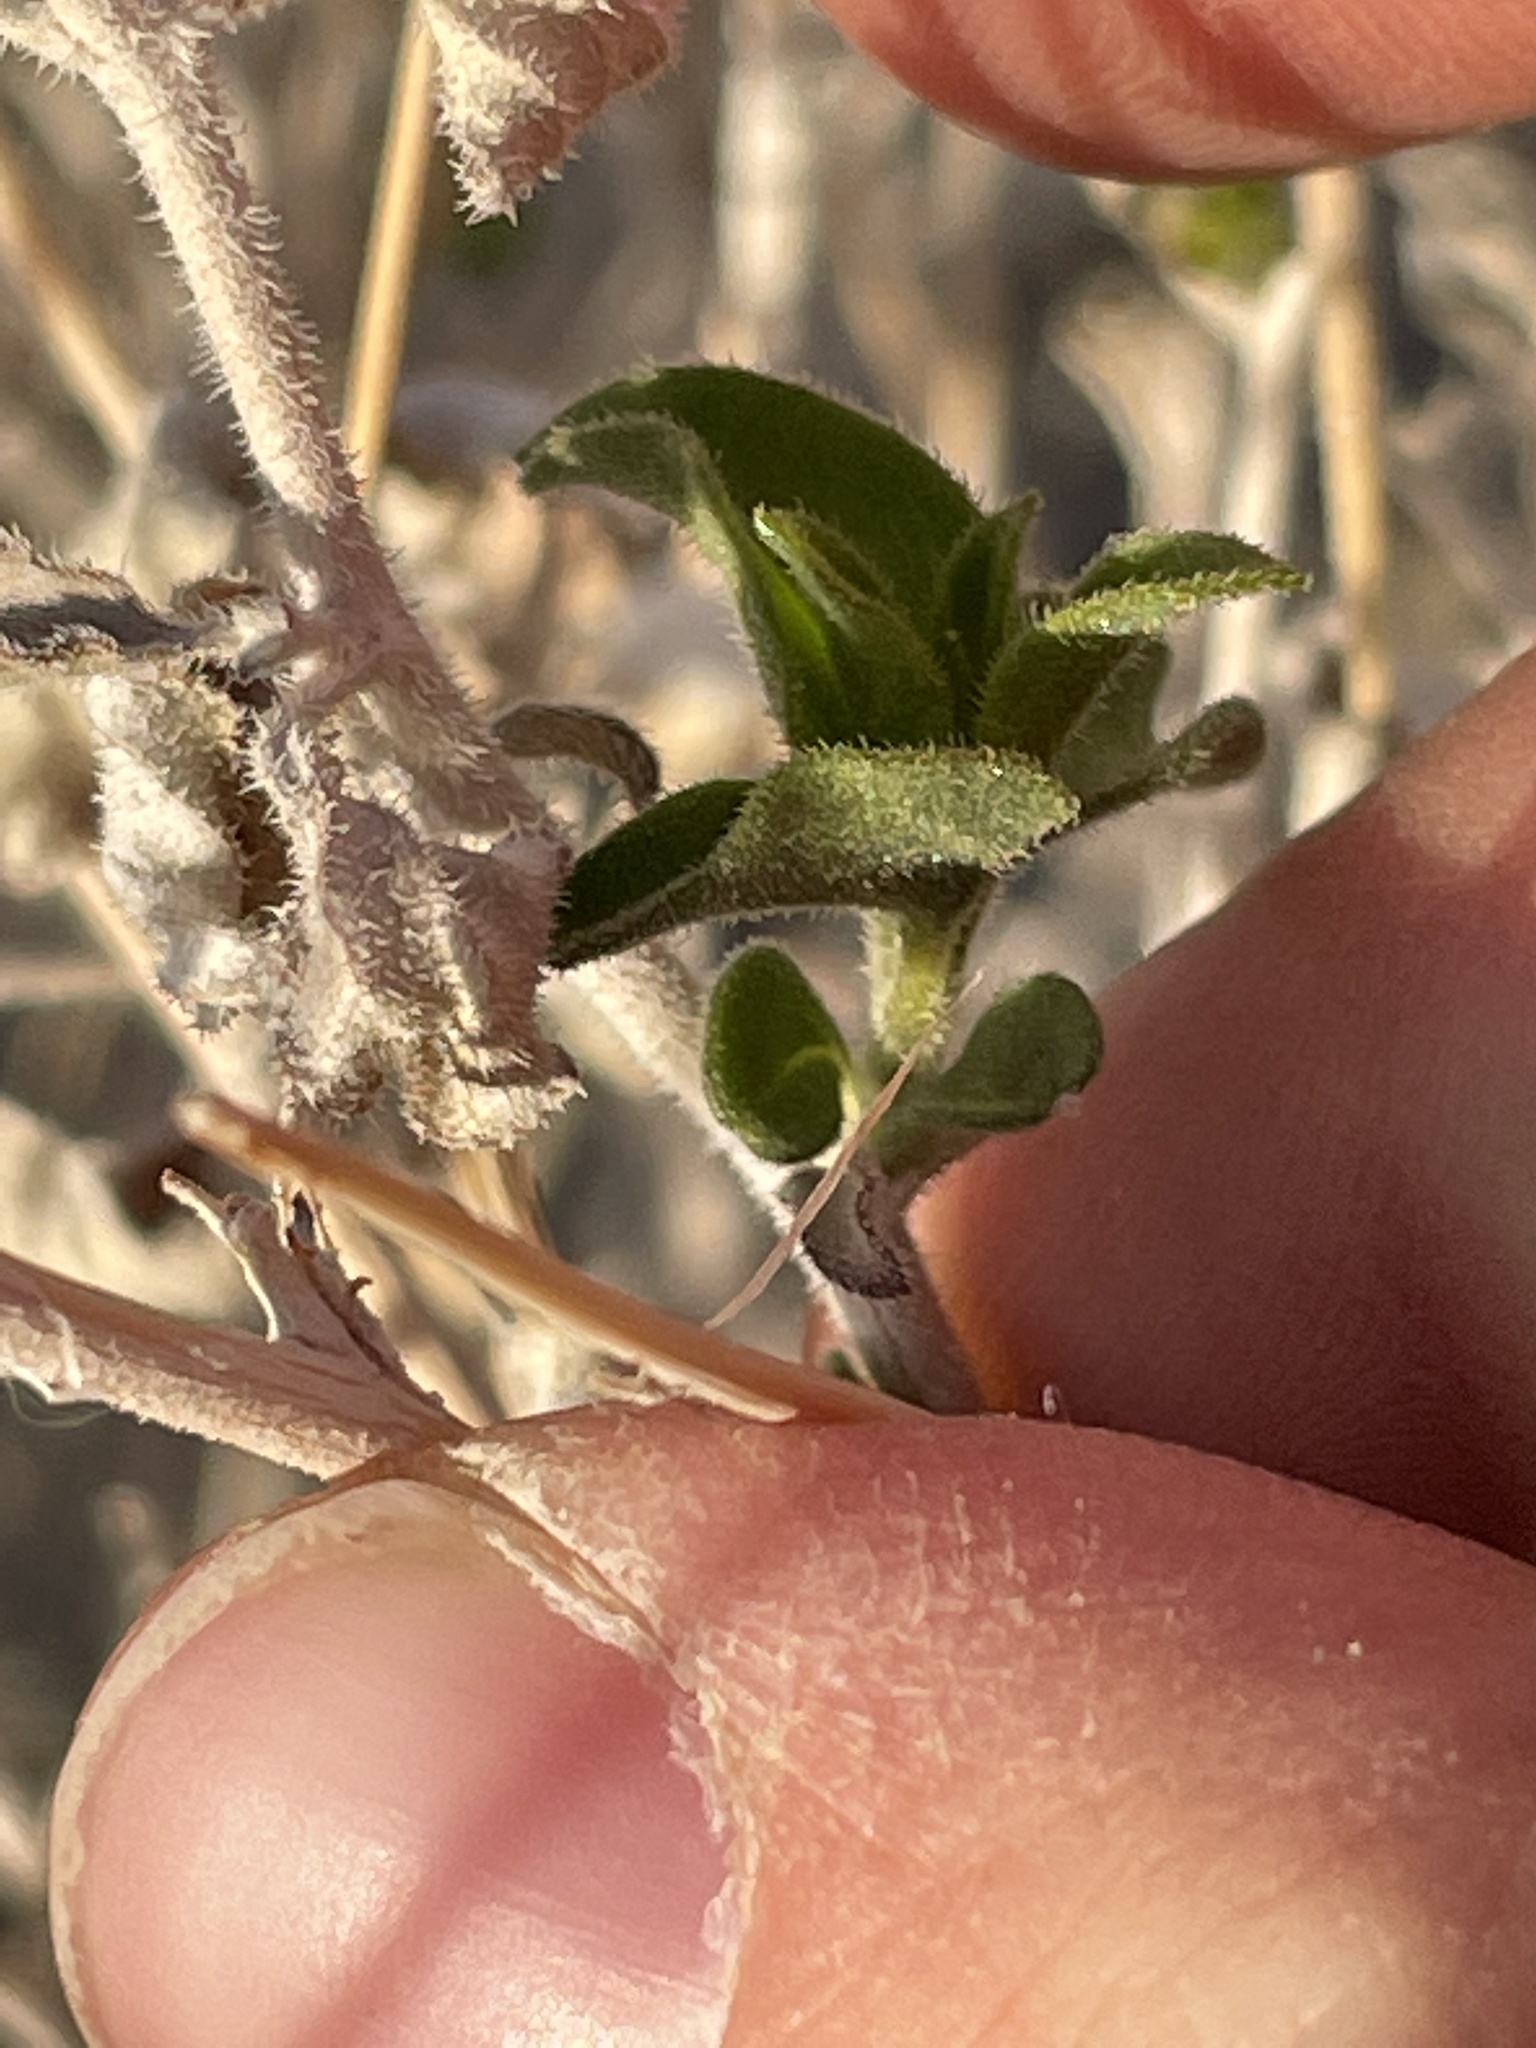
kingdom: Plantae
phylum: Tracheophyta
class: Magnoliopsida
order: Asterales
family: Asteraceae
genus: Encelia
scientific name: Encelia virginensis
